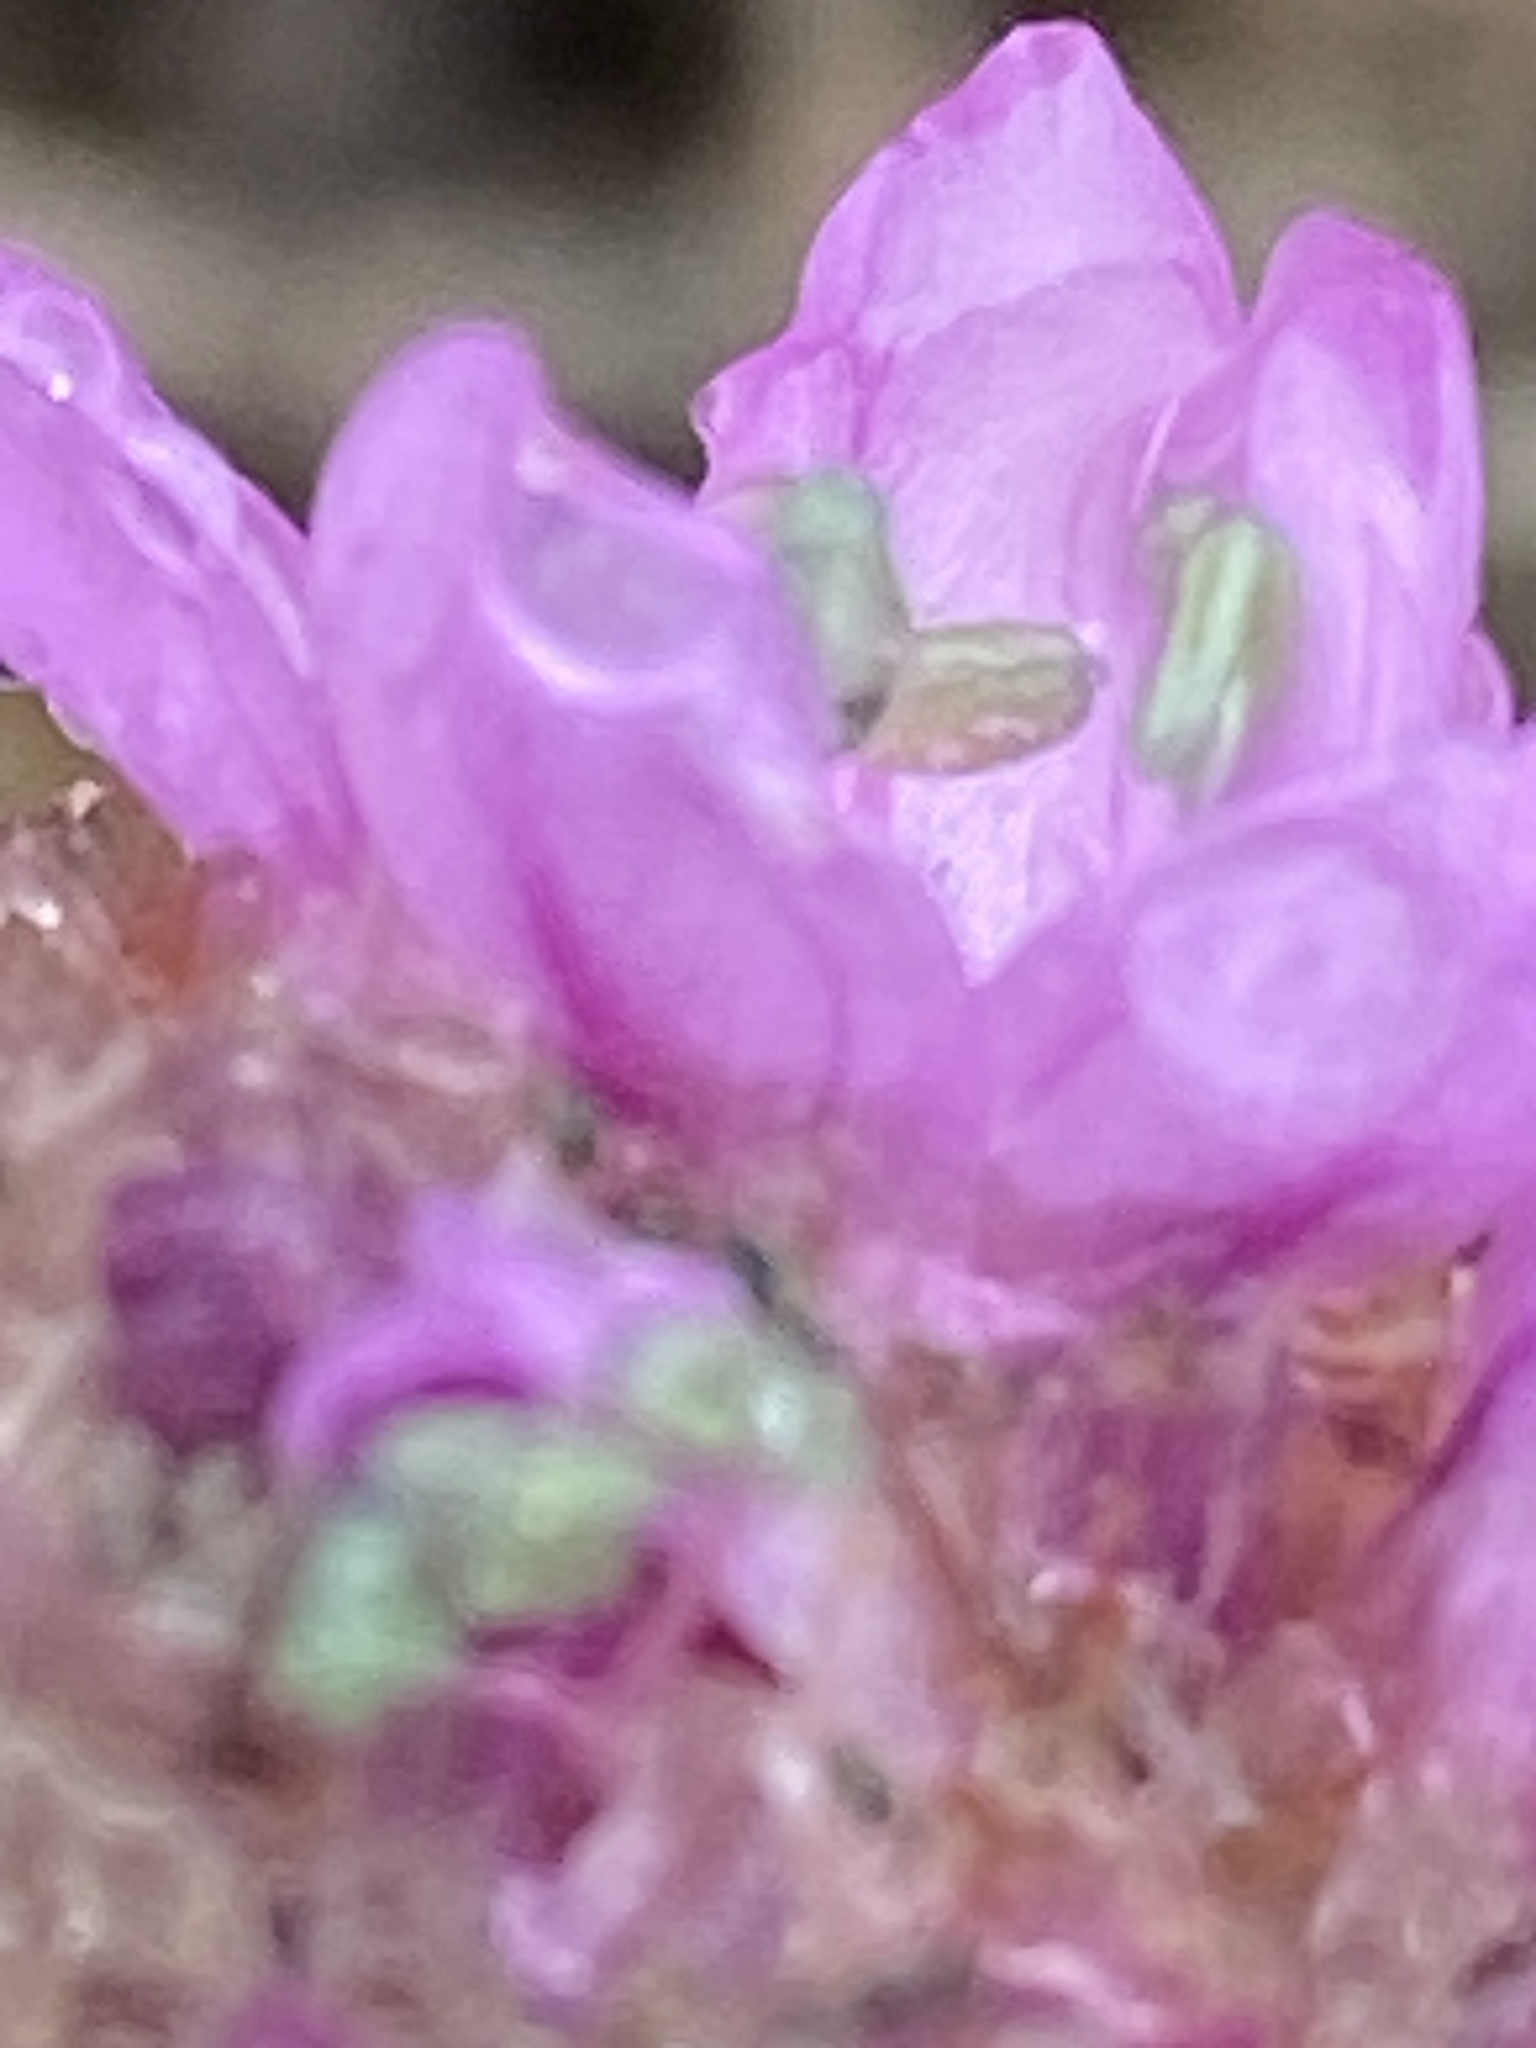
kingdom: Plantae
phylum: Tracheophyta
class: Magnoliopsida
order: Caryophyllales
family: Plumbaginaceae
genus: Armeria
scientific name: Armeria maritima
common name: Thrift
